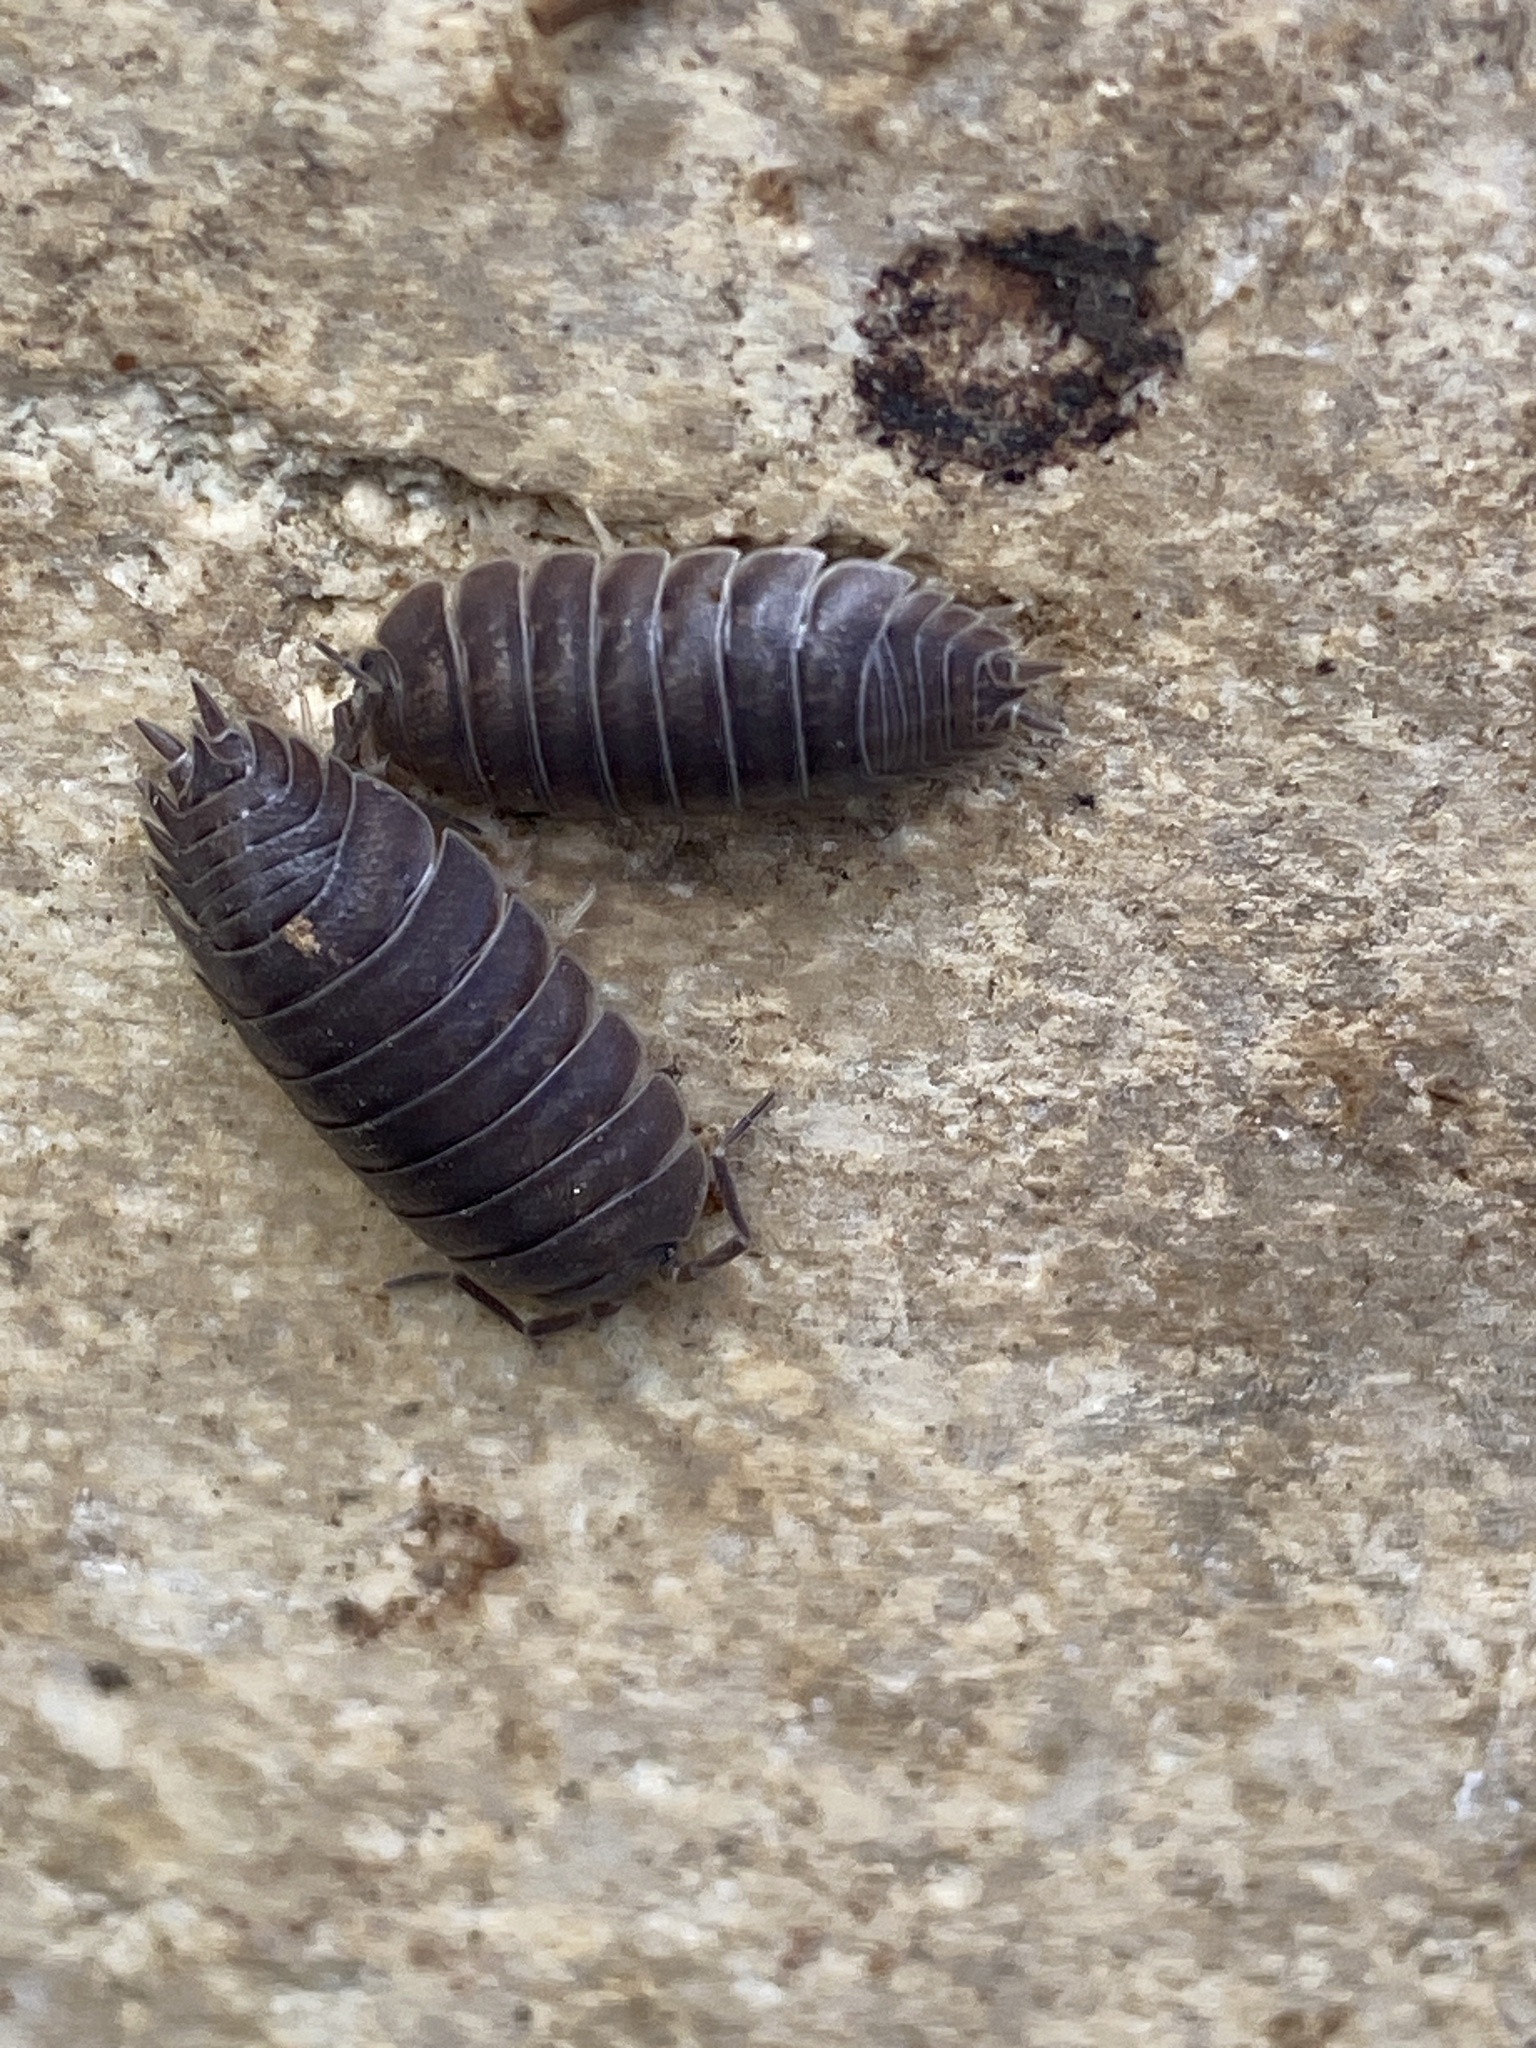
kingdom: Animalia
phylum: Arthropoda
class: Malacostraca
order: Isopoda
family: Porcellionidae
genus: Porcellio
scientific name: Porcellio laevis
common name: Swift woodlouse
